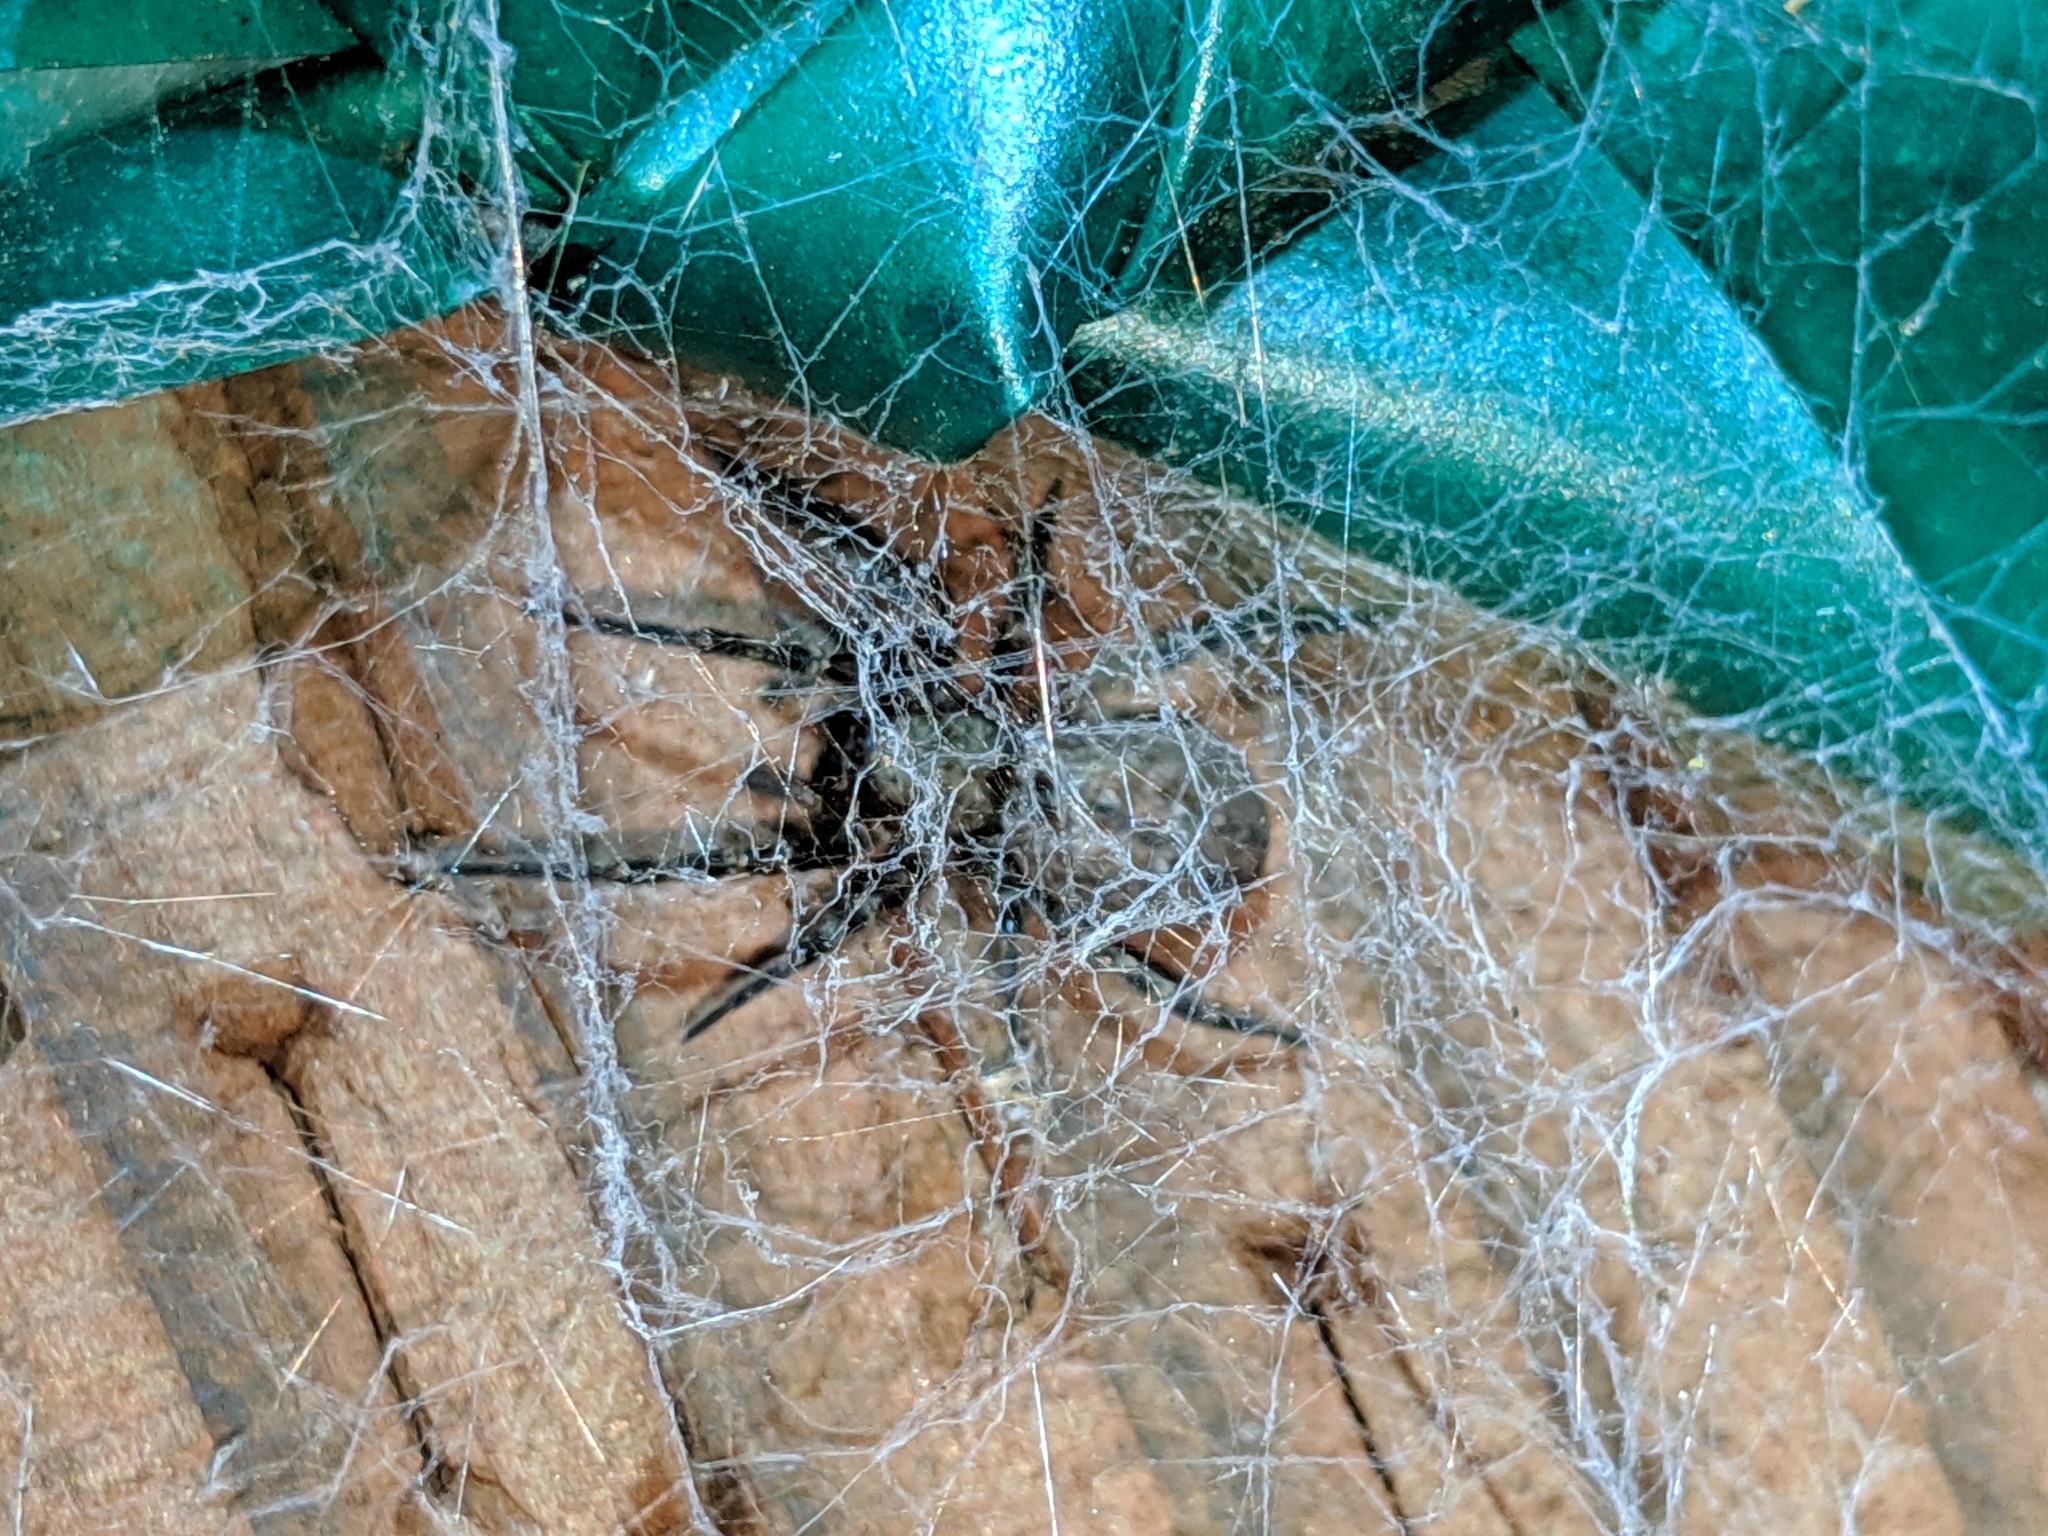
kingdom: Animalia
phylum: Arthropoda
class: Arachnida
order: Araneae
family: Desidae
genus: Badumna
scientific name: Badumna longinqua
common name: Gray house spider
